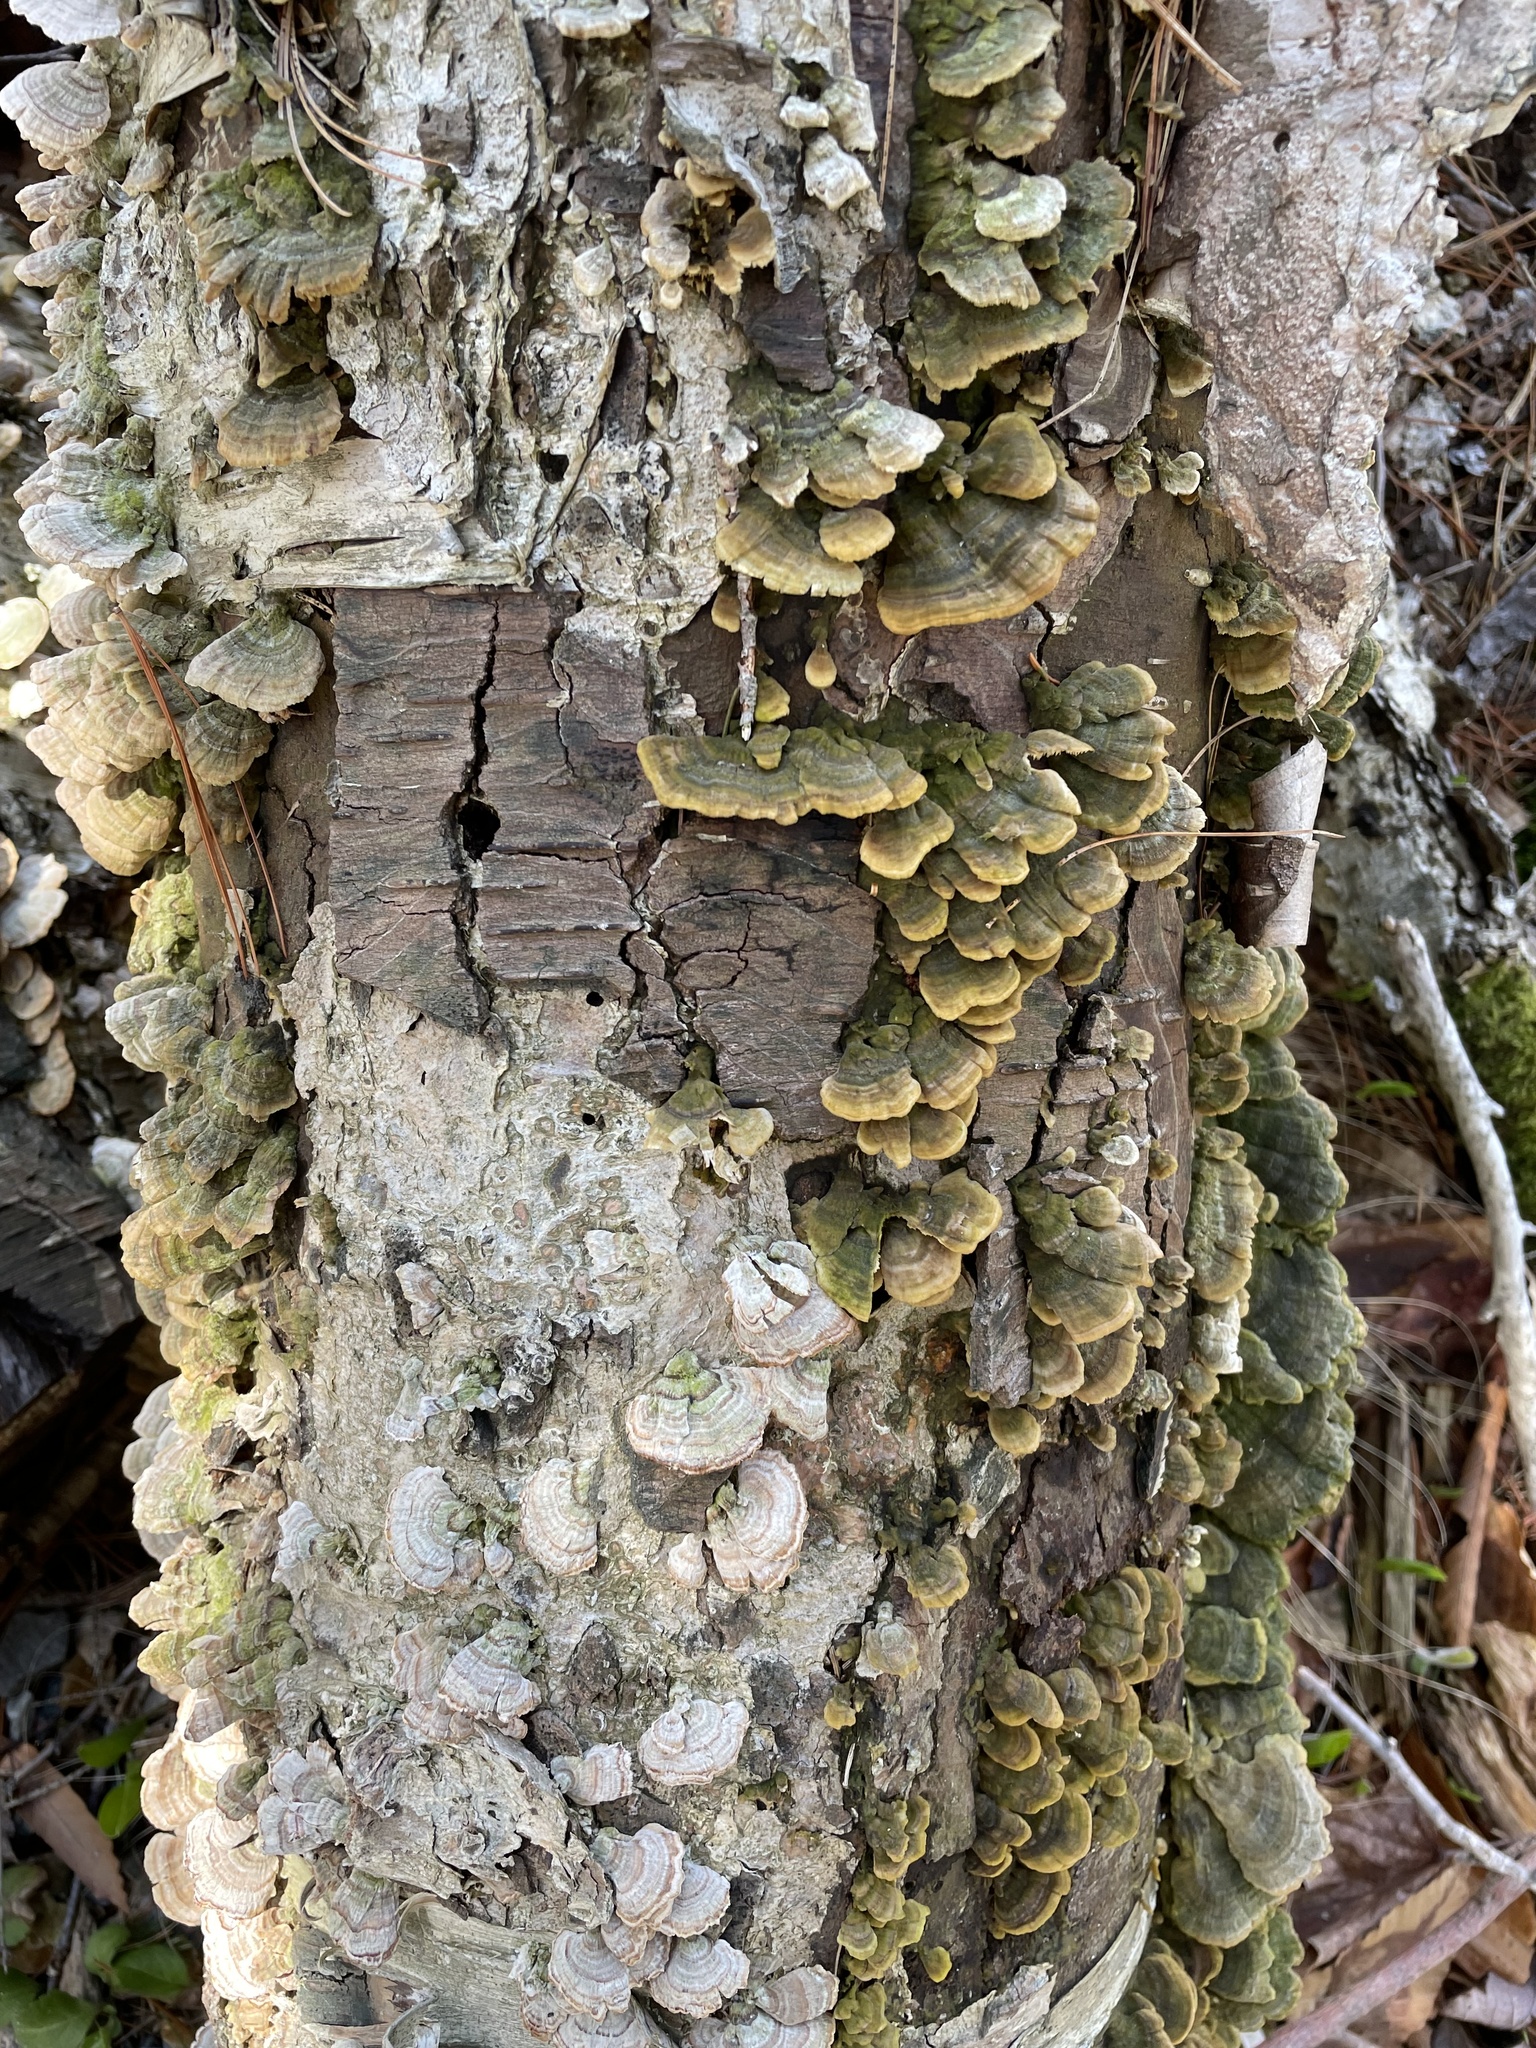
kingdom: Fungi
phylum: Basidiomycota
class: Agaricomycetes
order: Polyporales
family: Polyporaceae
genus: Trametes
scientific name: Trametes versicolor
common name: Turkeytail
